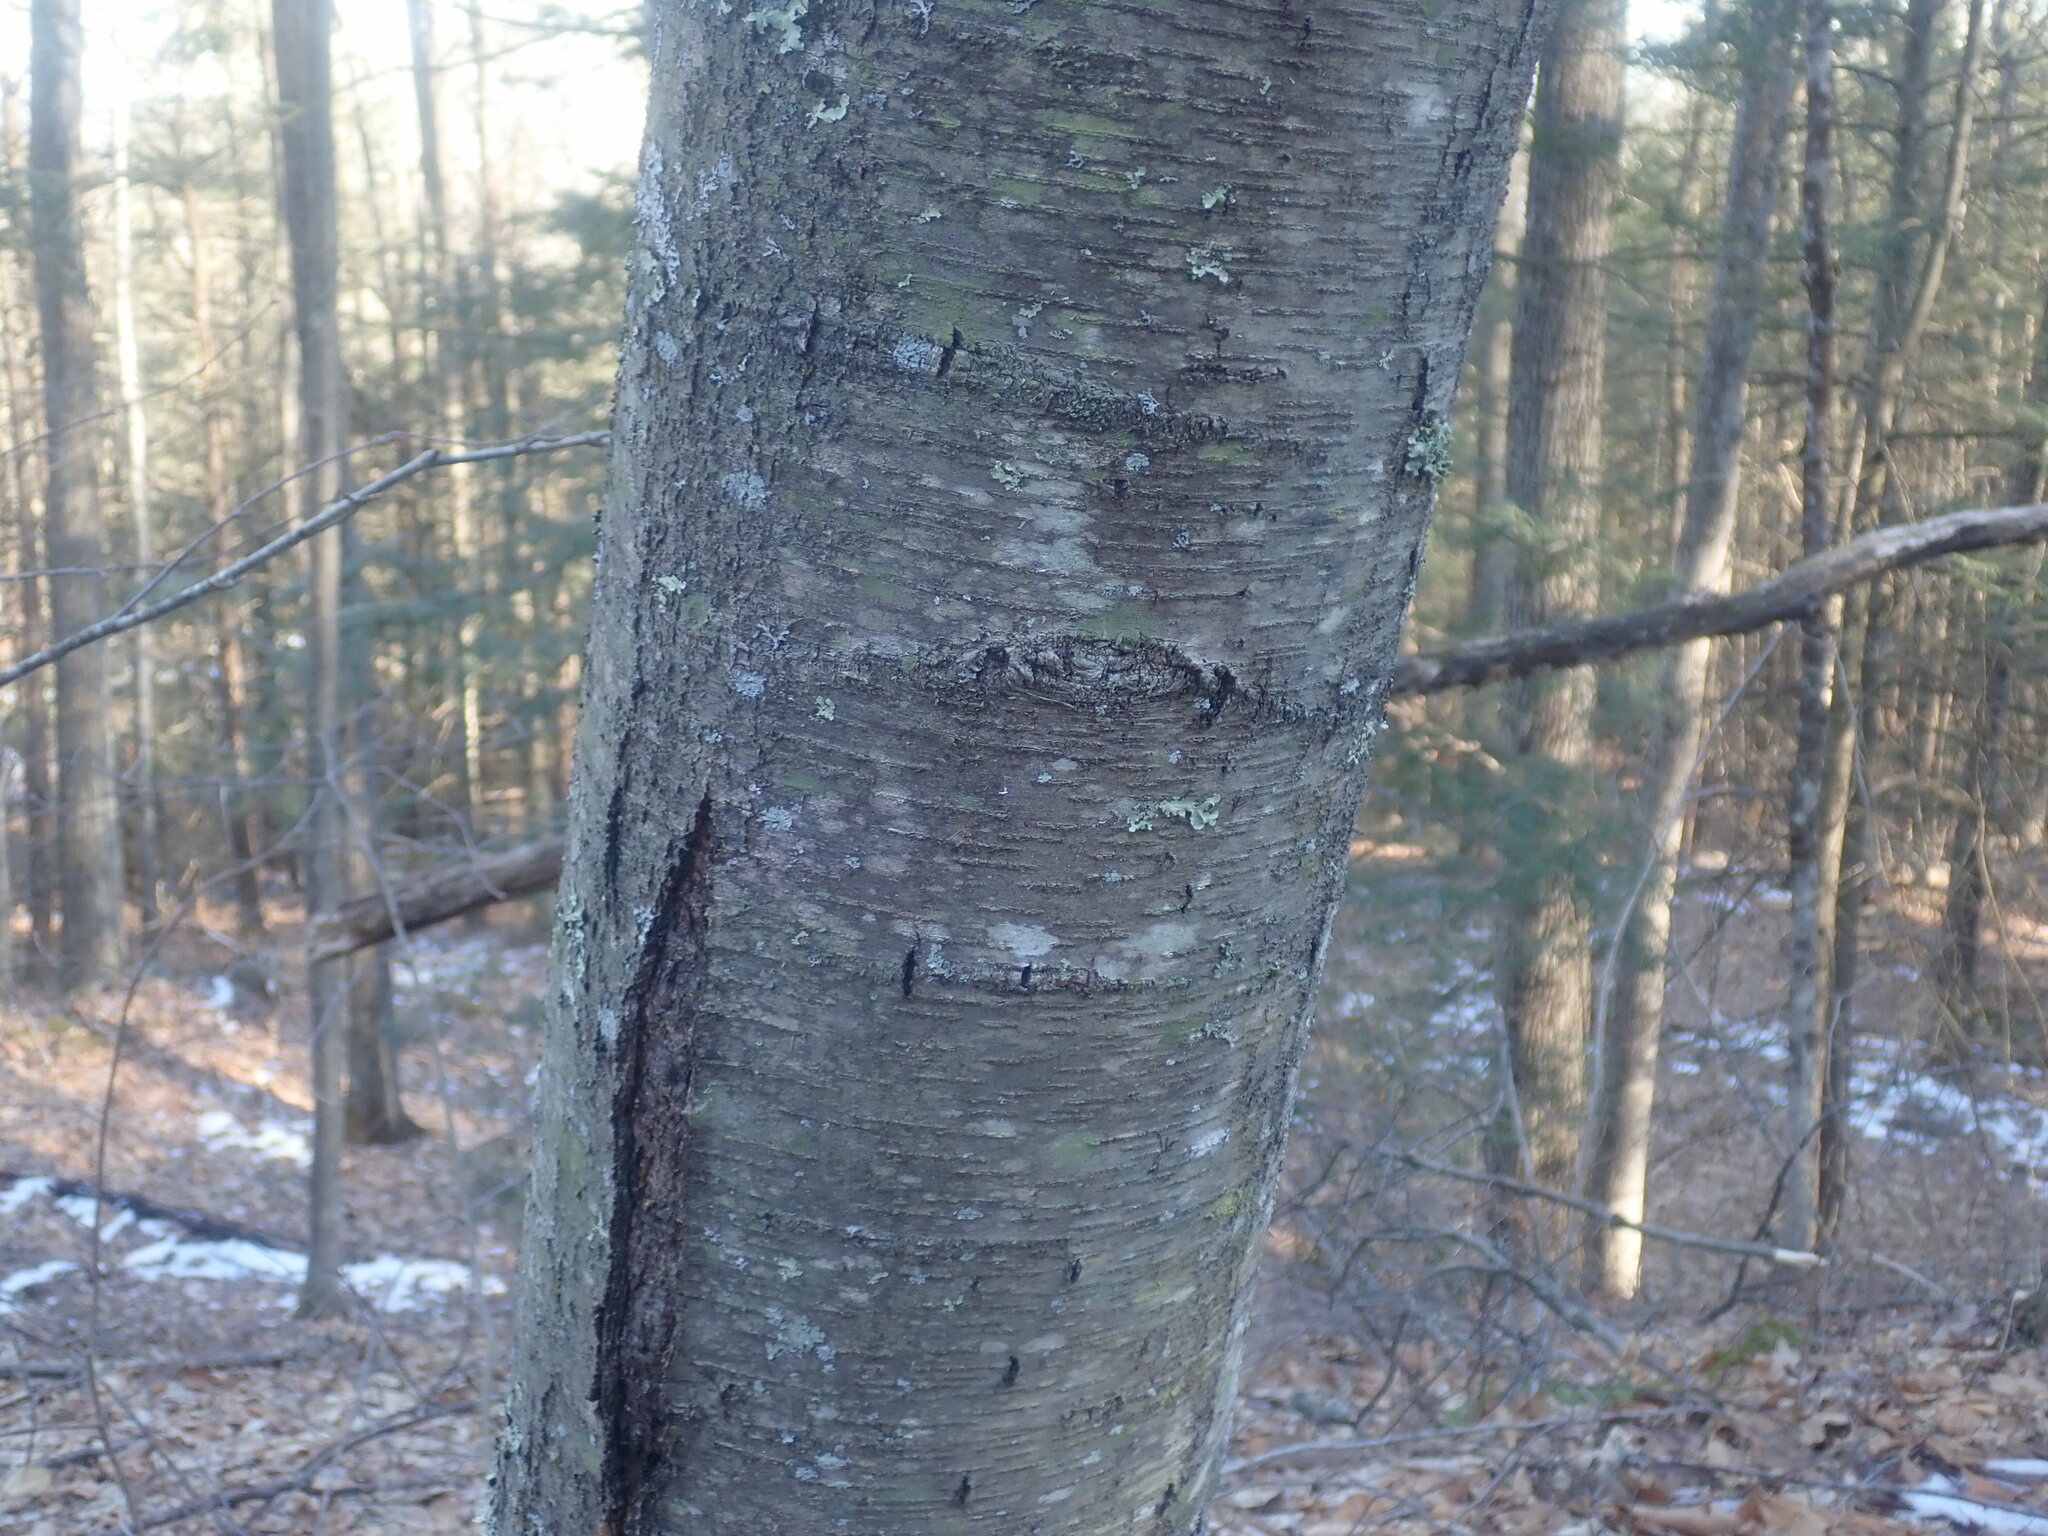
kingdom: Plantae
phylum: Tracheophyta
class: Magnoliopsida
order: Fagales
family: Betulaceae
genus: Betula
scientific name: Betula lenta
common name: Black birch
